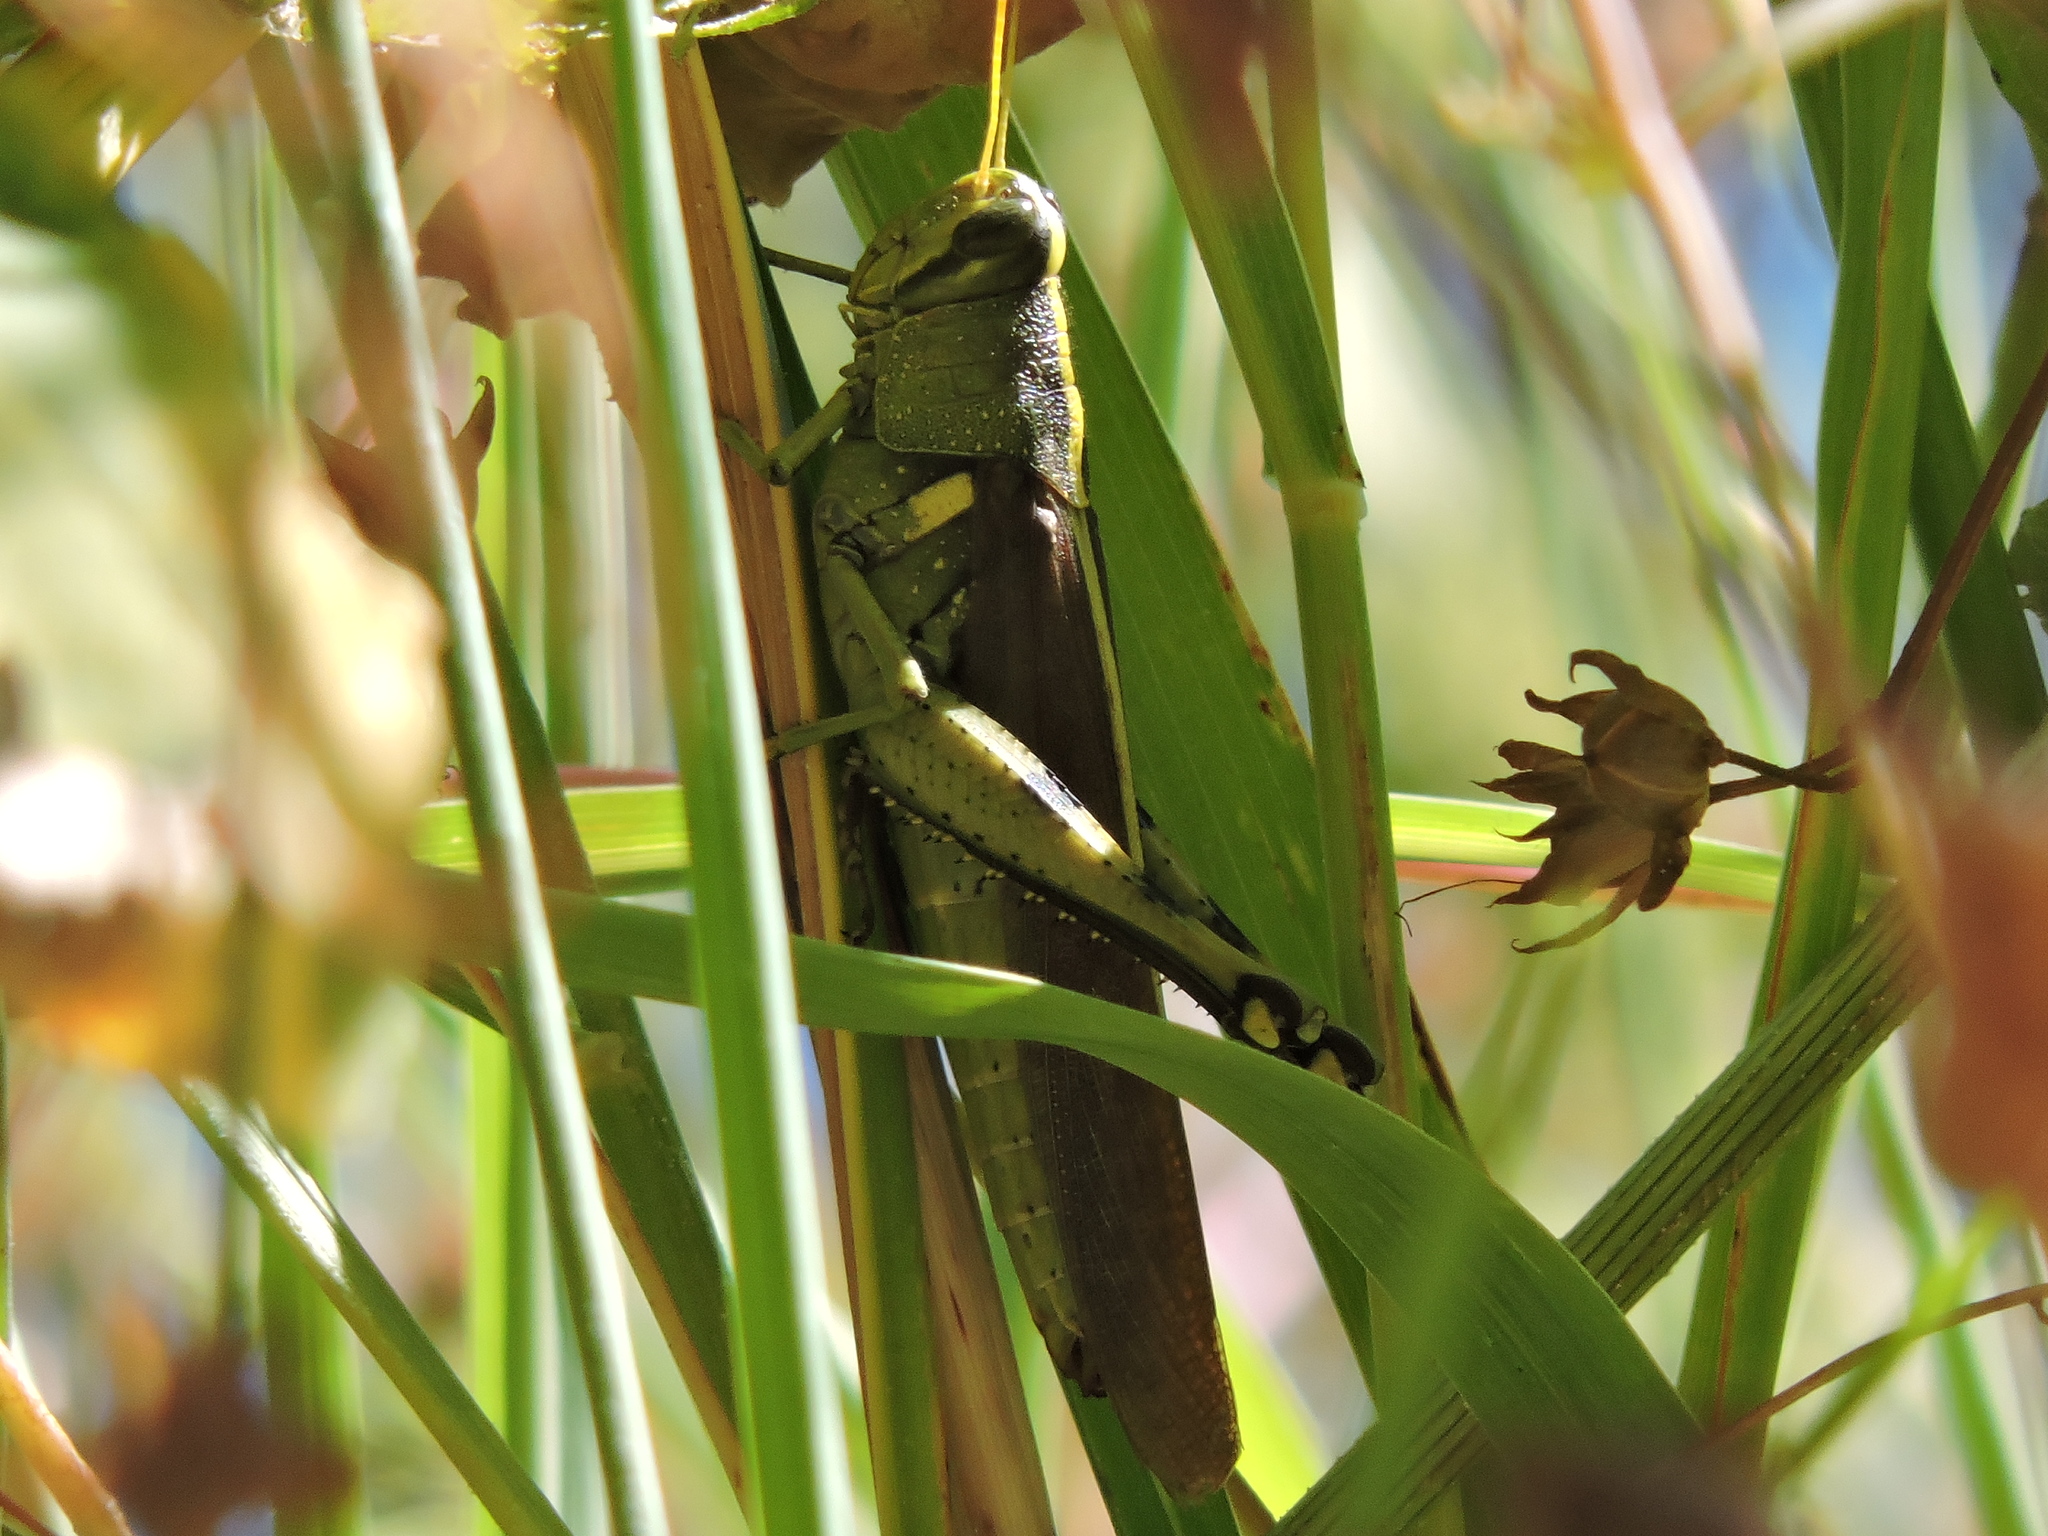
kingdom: Animalia
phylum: Arthropoda
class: Insecta
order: Orthoptera
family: Acrididae
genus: Schistocerca
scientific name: Schistocerca obscura
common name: Obscure bird grasshopper
